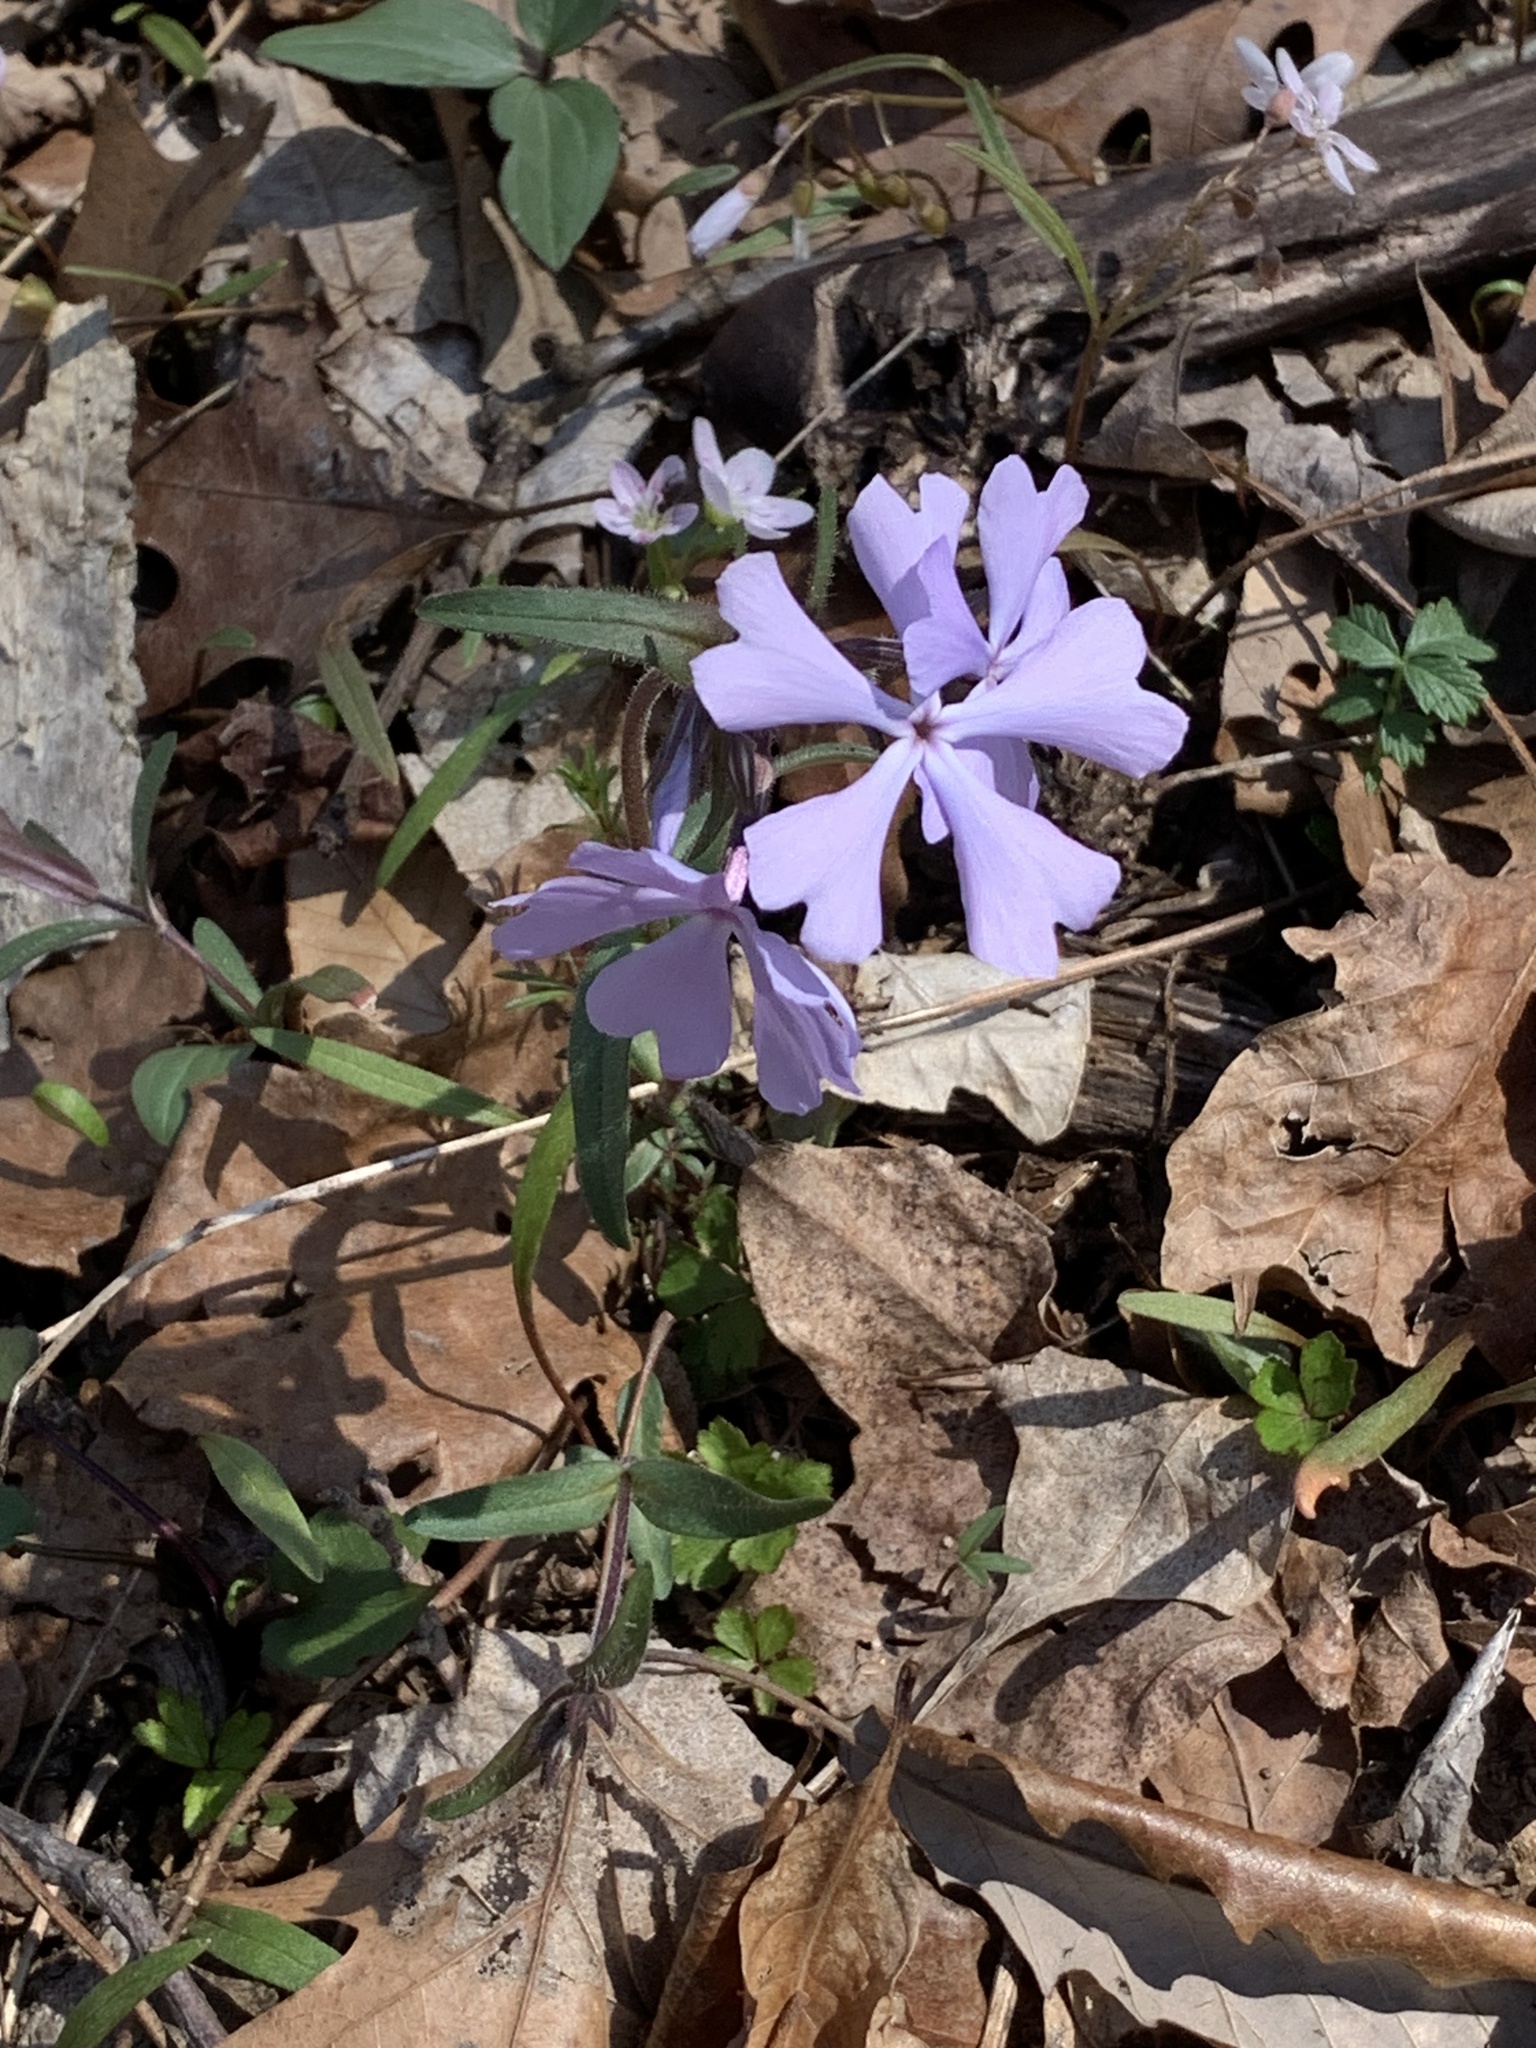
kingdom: Plantae
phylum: Tracheophyta
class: Magnoliopsida
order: Ericales
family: Polemoniaceae
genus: Phlox
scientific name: Phlox divaricata
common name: Blue phlox
